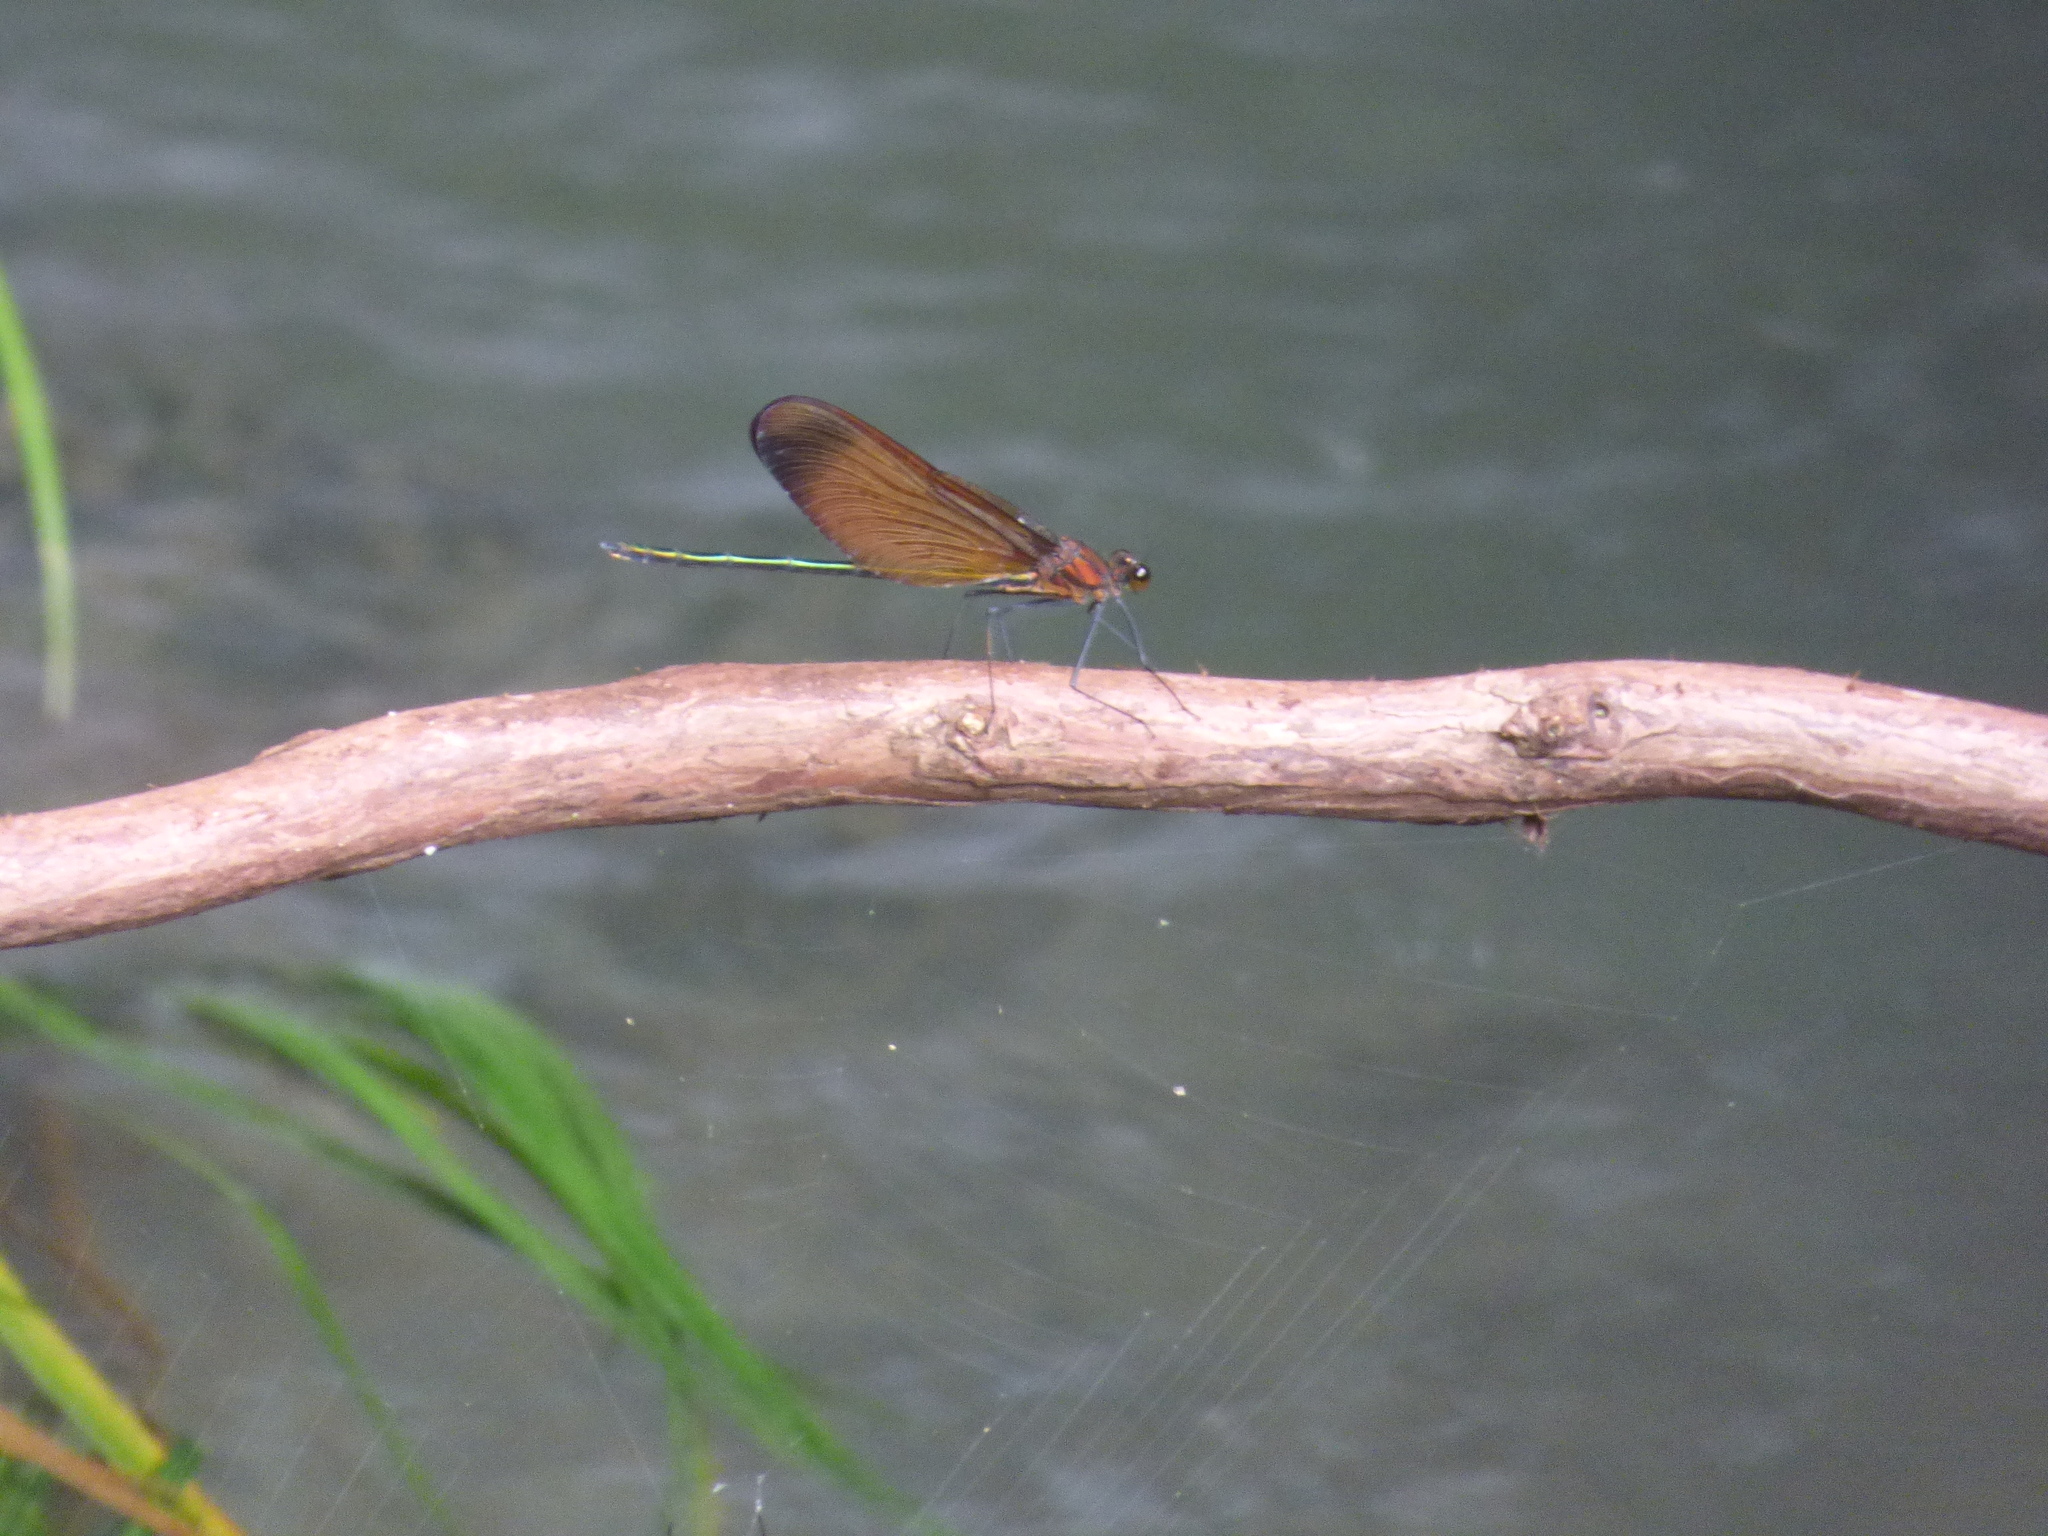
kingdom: Animalia
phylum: Arthropoda
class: Insecta
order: Odonata
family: Calopterygidae
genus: Calopteryx
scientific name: Calopteryx cornelia
